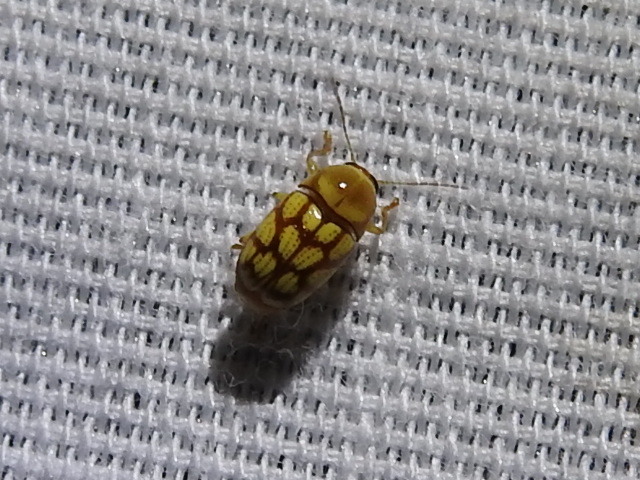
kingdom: Animalia
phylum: Arthropoda
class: Insecta
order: Coleoptera
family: Chrysomelidae
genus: Cryptocephalus
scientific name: Cryptocephalus
